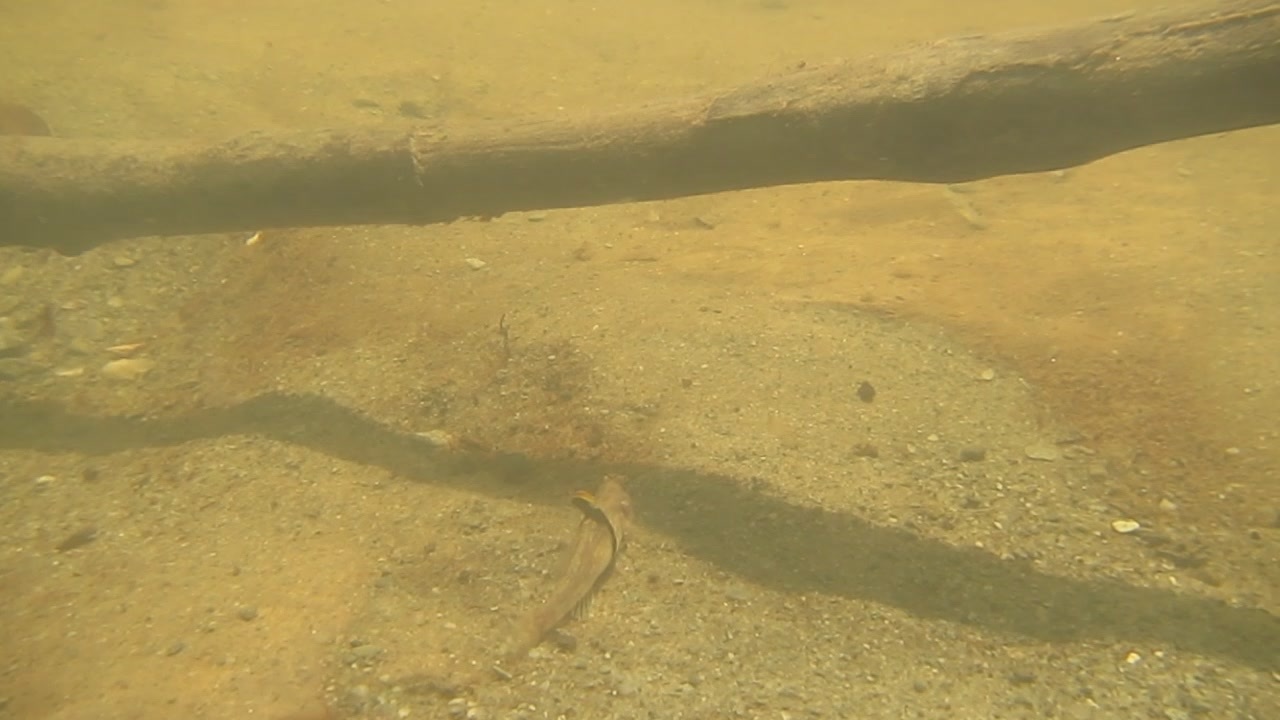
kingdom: Animalia
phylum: Chordata
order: Perciformes
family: Gobiidae
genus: Redigobius
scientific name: Redigobius balteatus
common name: Rhino-horn goby
